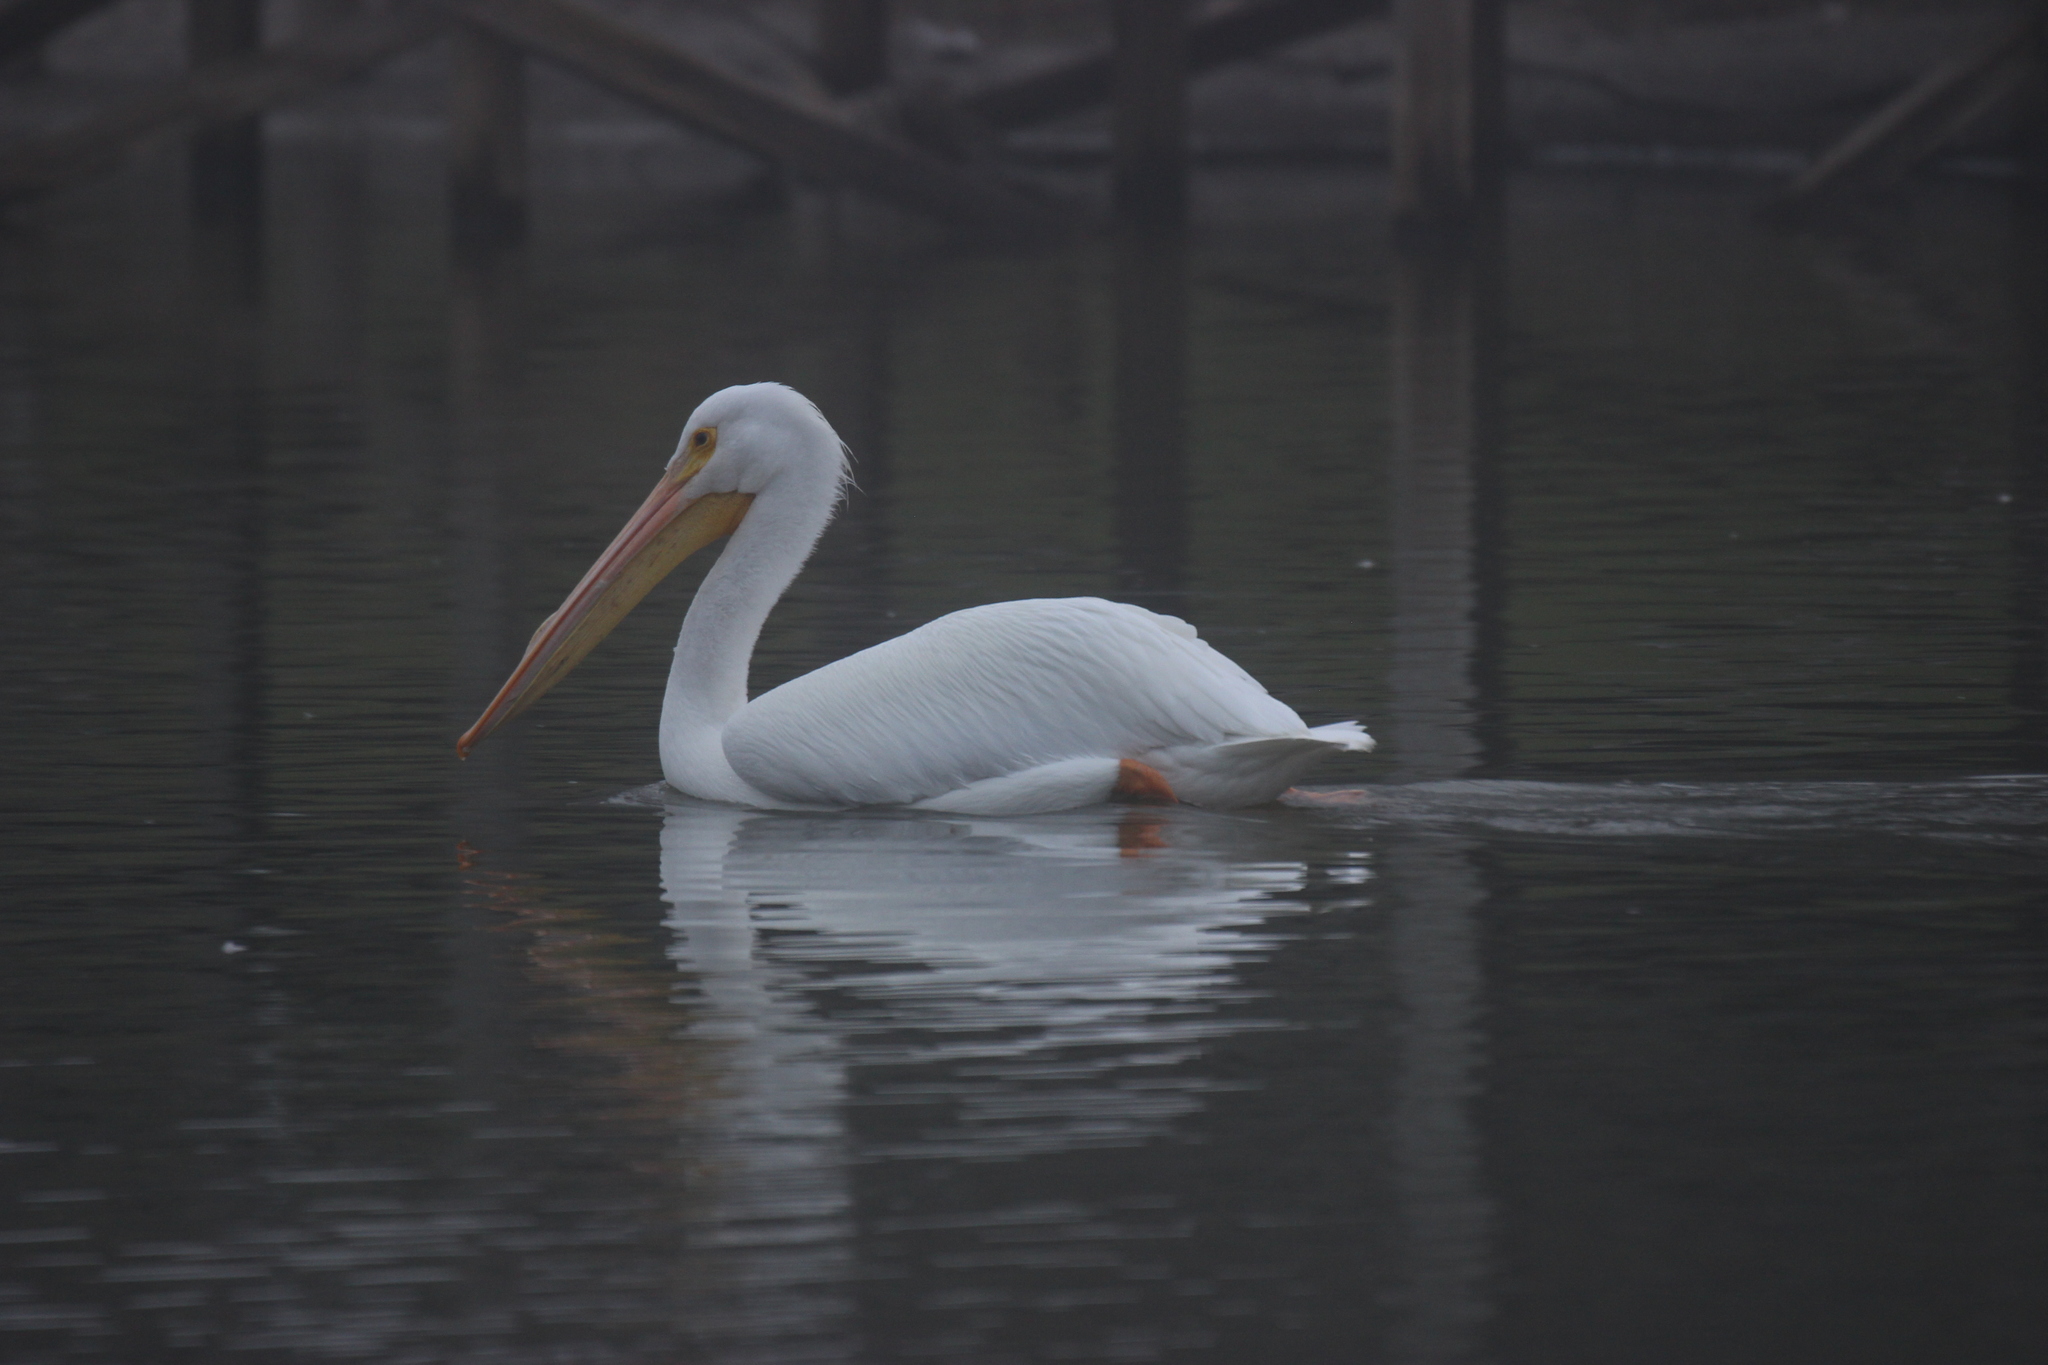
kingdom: Animalia
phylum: Chordata
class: Aves
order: Pelecaniformes
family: Pelecanidae
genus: Pelecanus
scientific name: Pelecanus erythrorhynchos
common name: American white pelican
